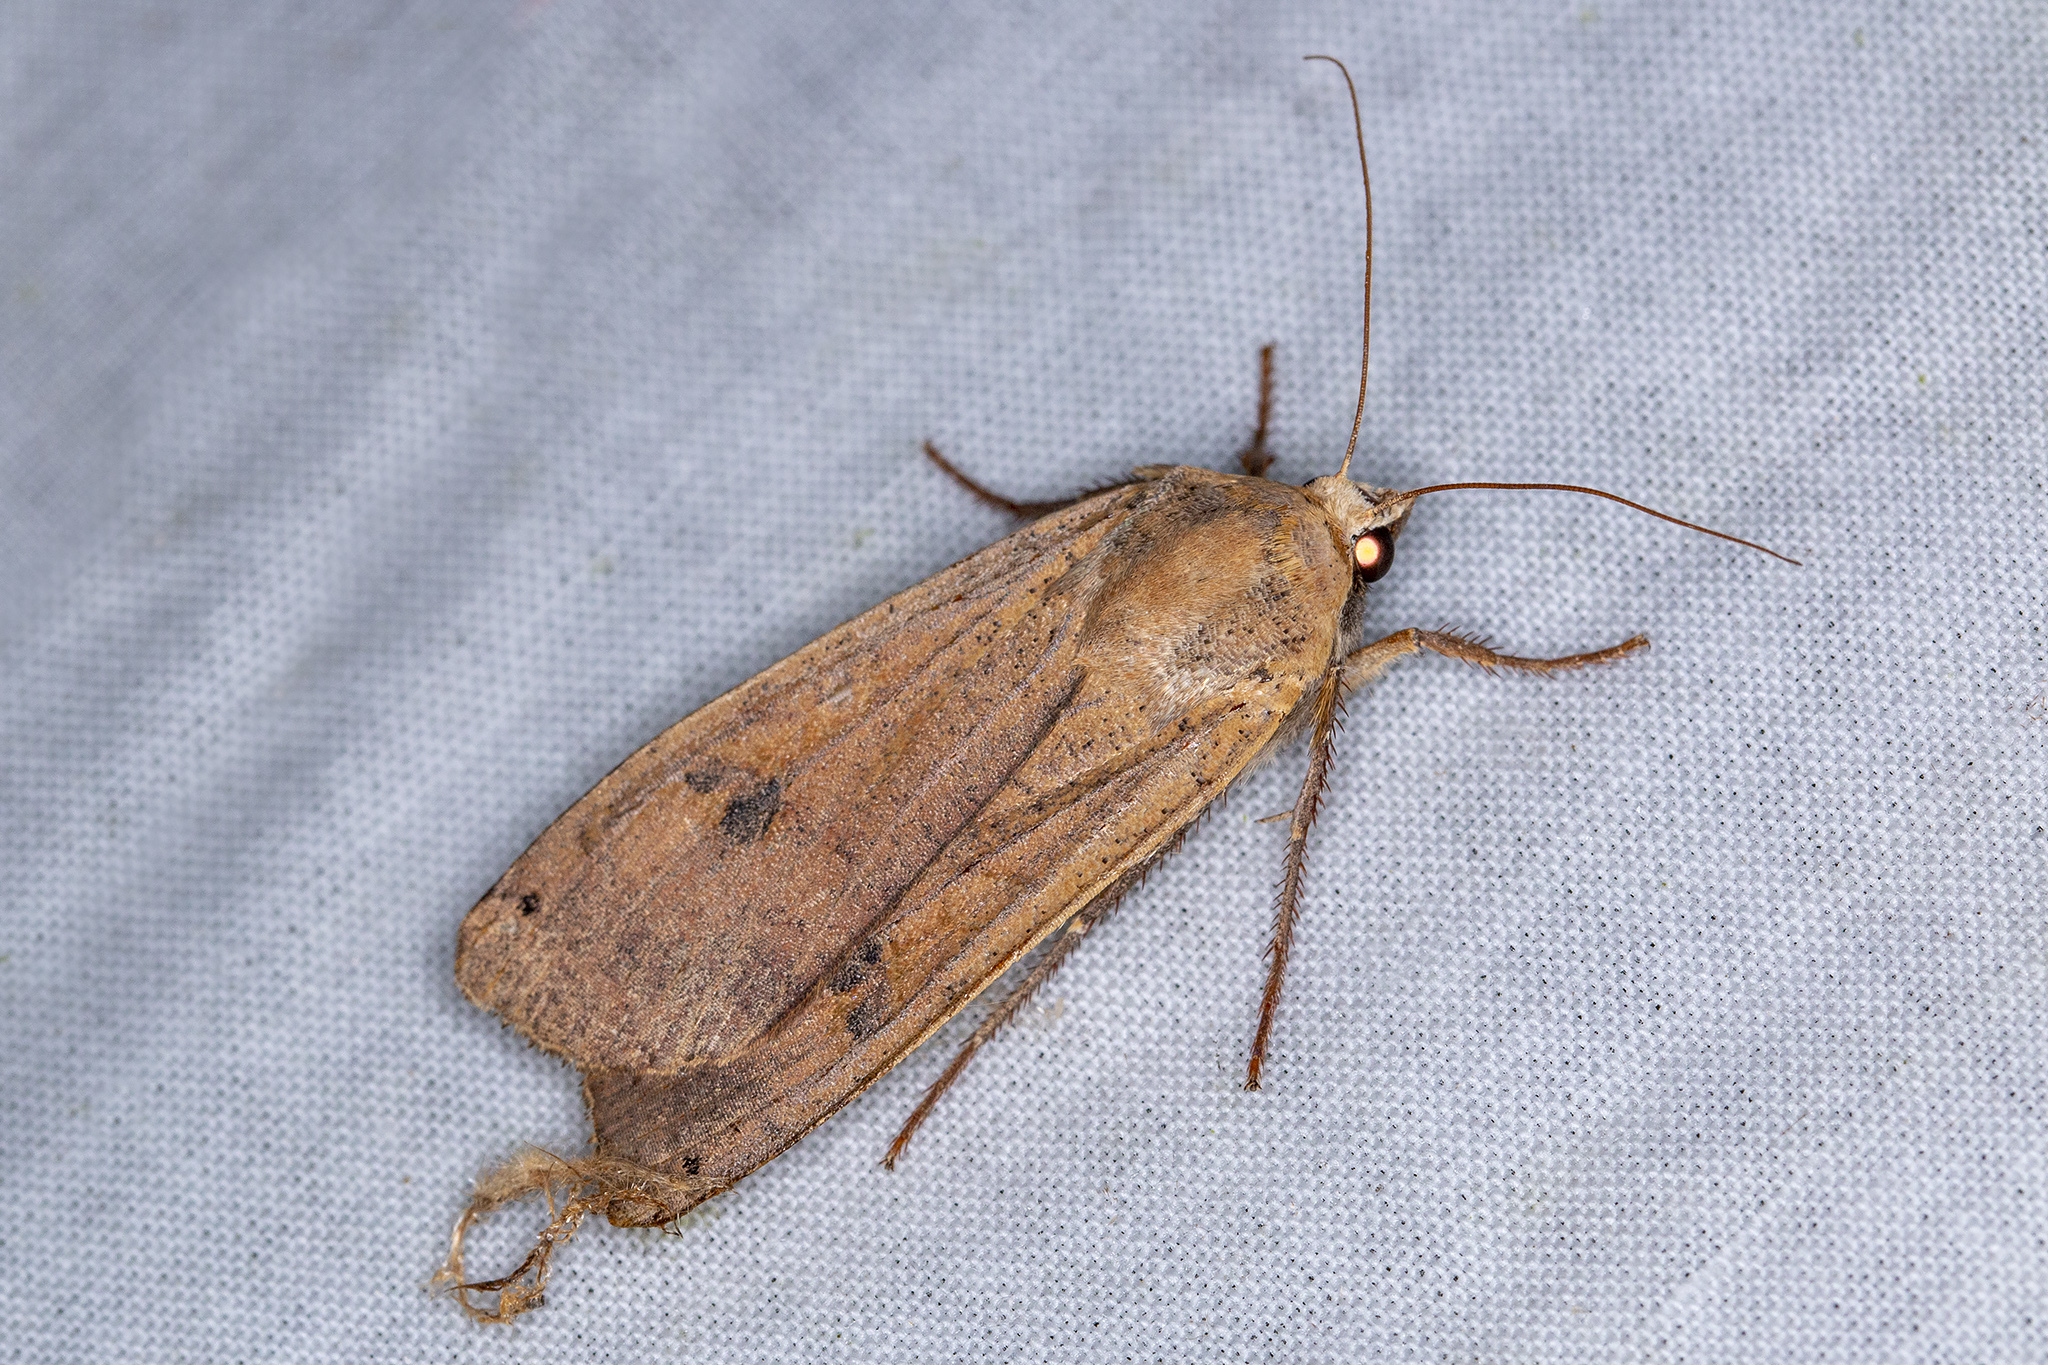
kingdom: Animalia
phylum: Arthropoda
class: Insecta
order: Lepidoptera
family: Noctuidae
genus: Noctua
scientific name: Noctua pronuba
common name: Large yellow underwing
